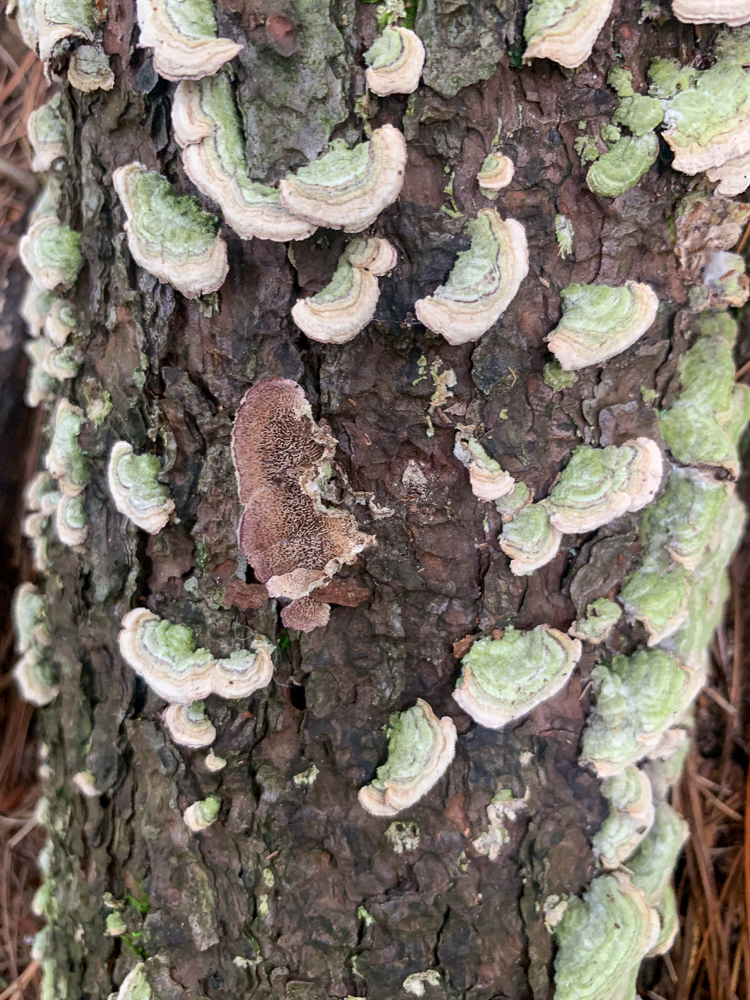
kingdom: Fungi
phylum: Basidiomycota
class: Agaricomycetes
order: Hymenochaetales
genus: Trichaptum
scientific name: Trichaptum abietinum
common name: Purplepore bracket
